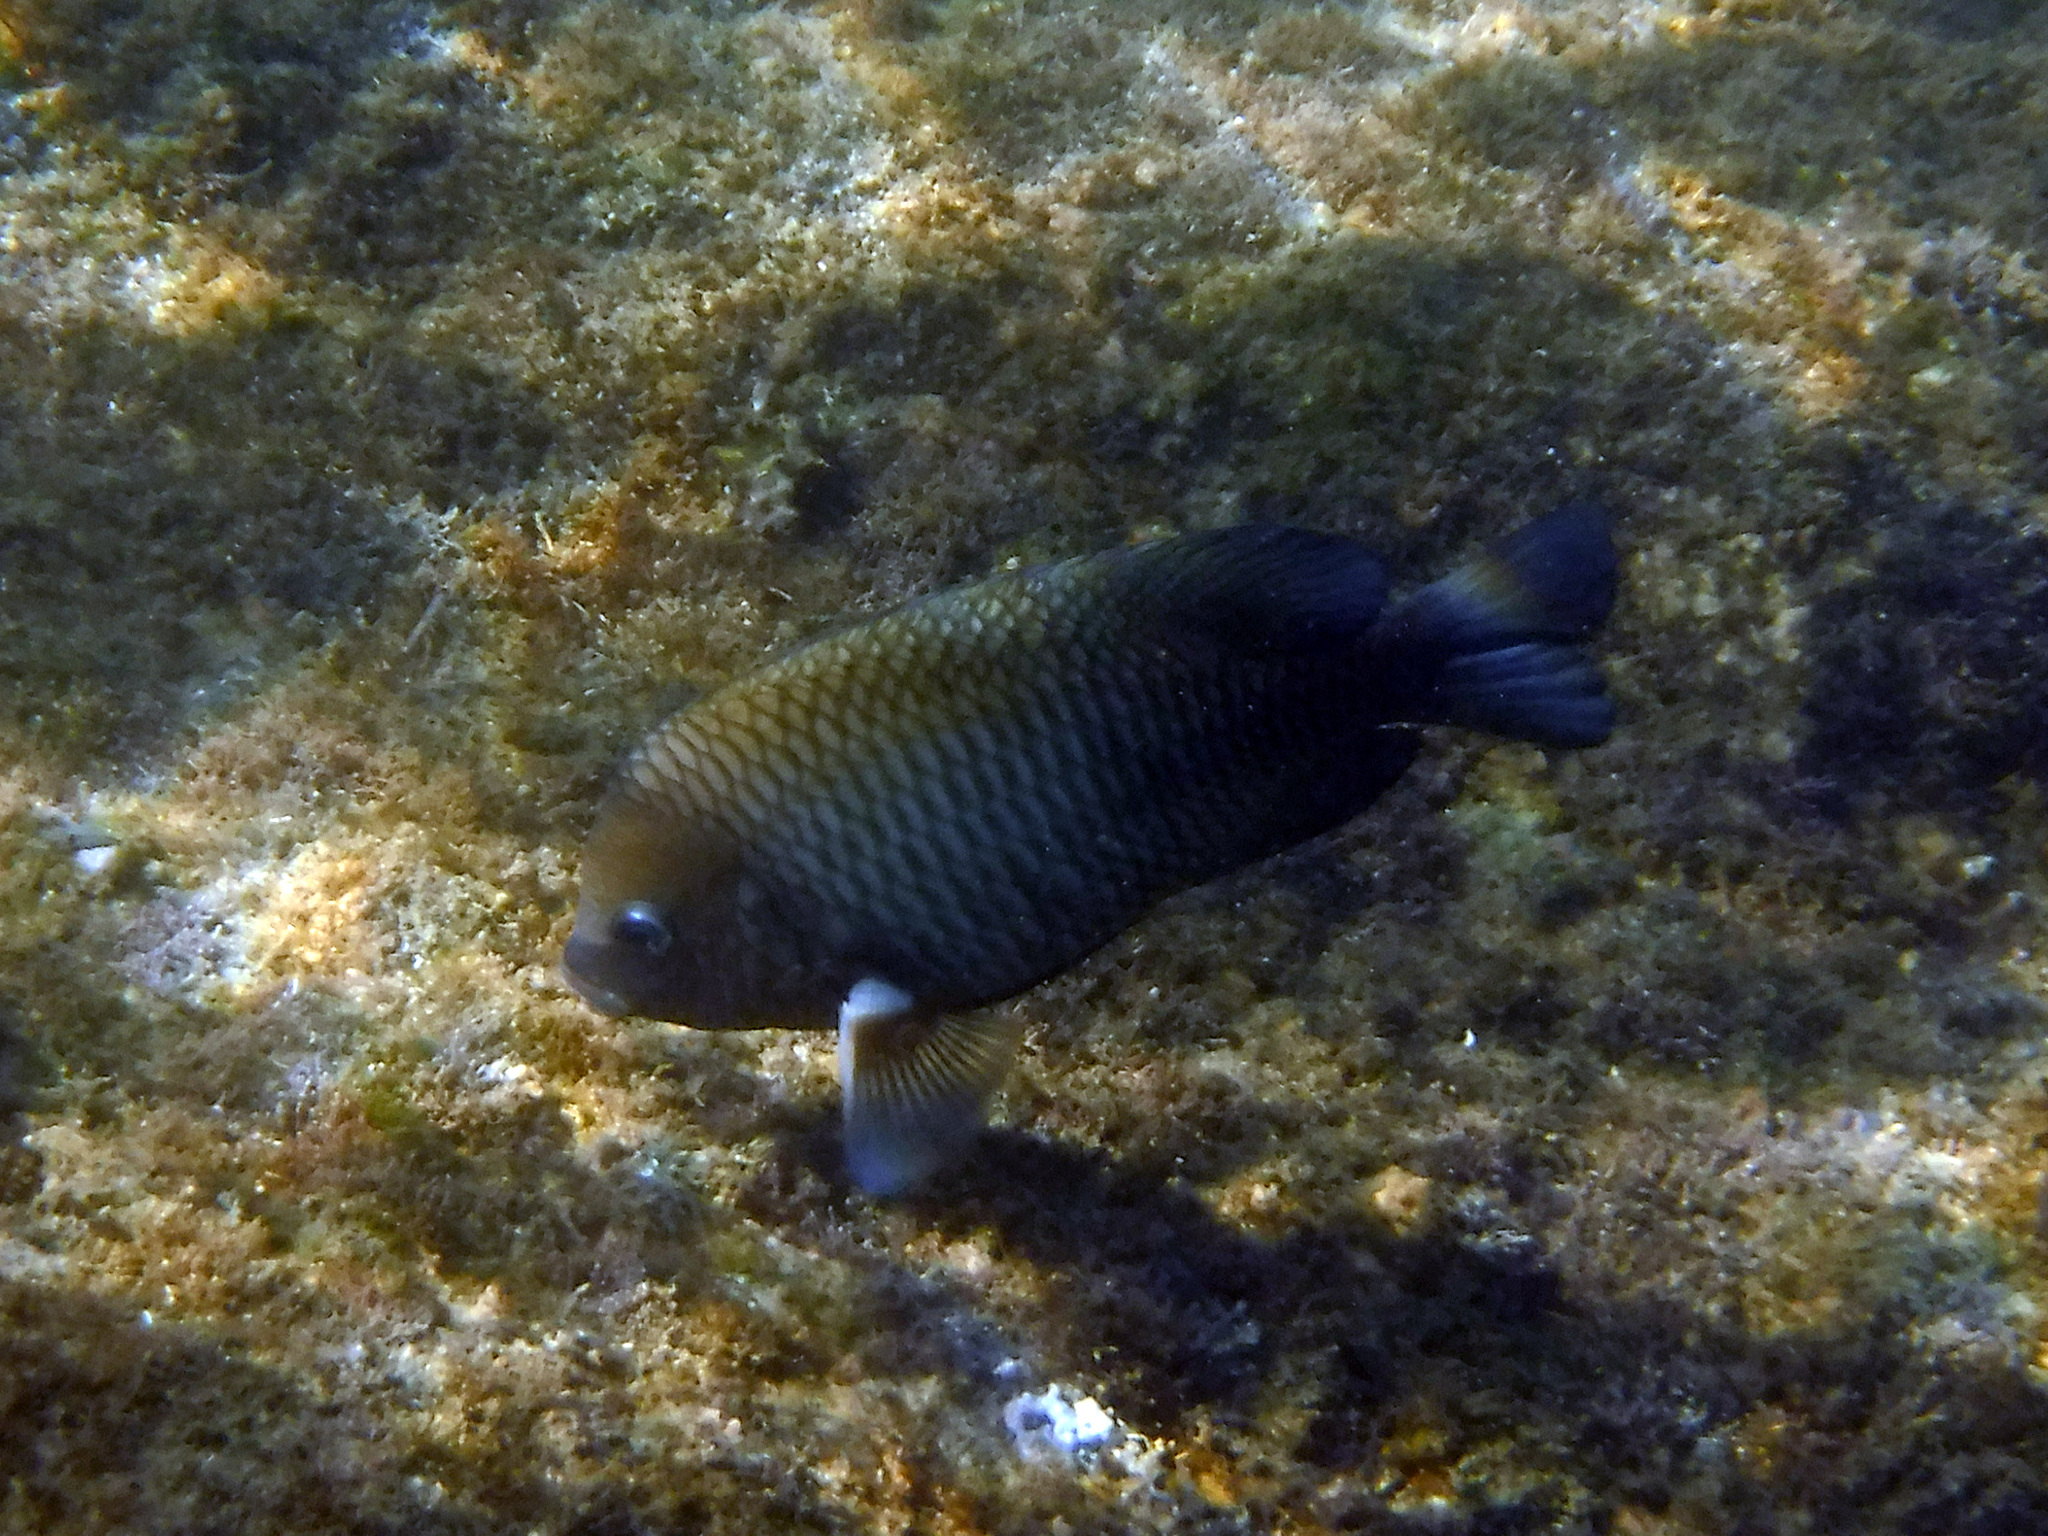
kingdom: Animalia
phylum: Chordata
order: Perciformes
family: Pomacentridae
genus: Stegastes
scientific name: Stegastes acapulcoensis
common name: Acapulco damselfish
